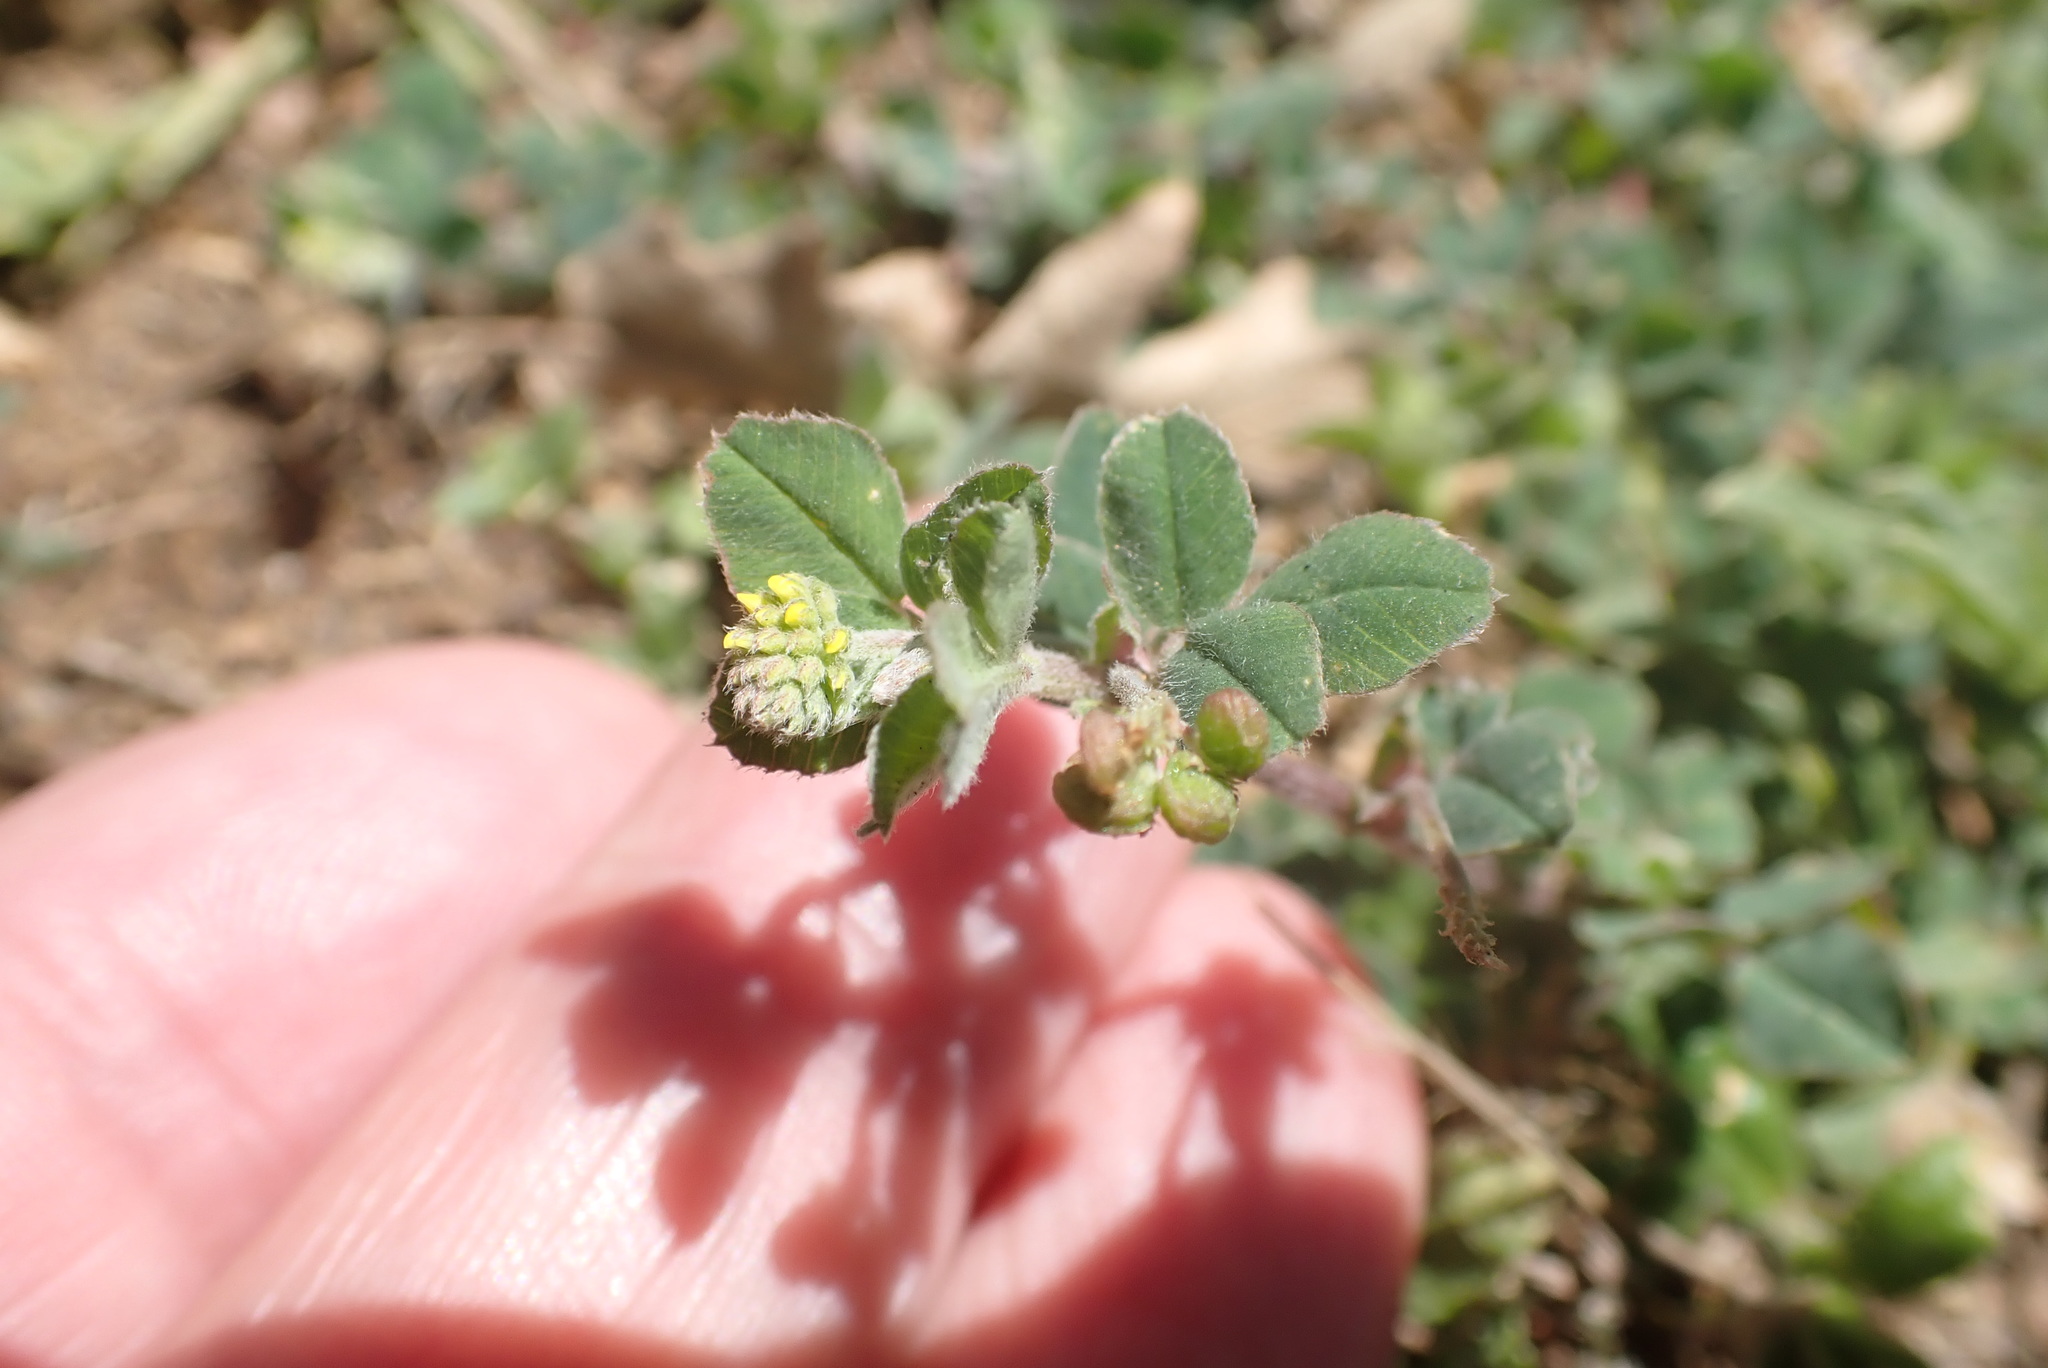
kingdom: Plantae
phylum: Tracheophyta
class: Magnoliopsida
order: Fabales
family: Fabaceae
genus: Medicago
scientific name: Medicago lupulina
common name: Black medick
